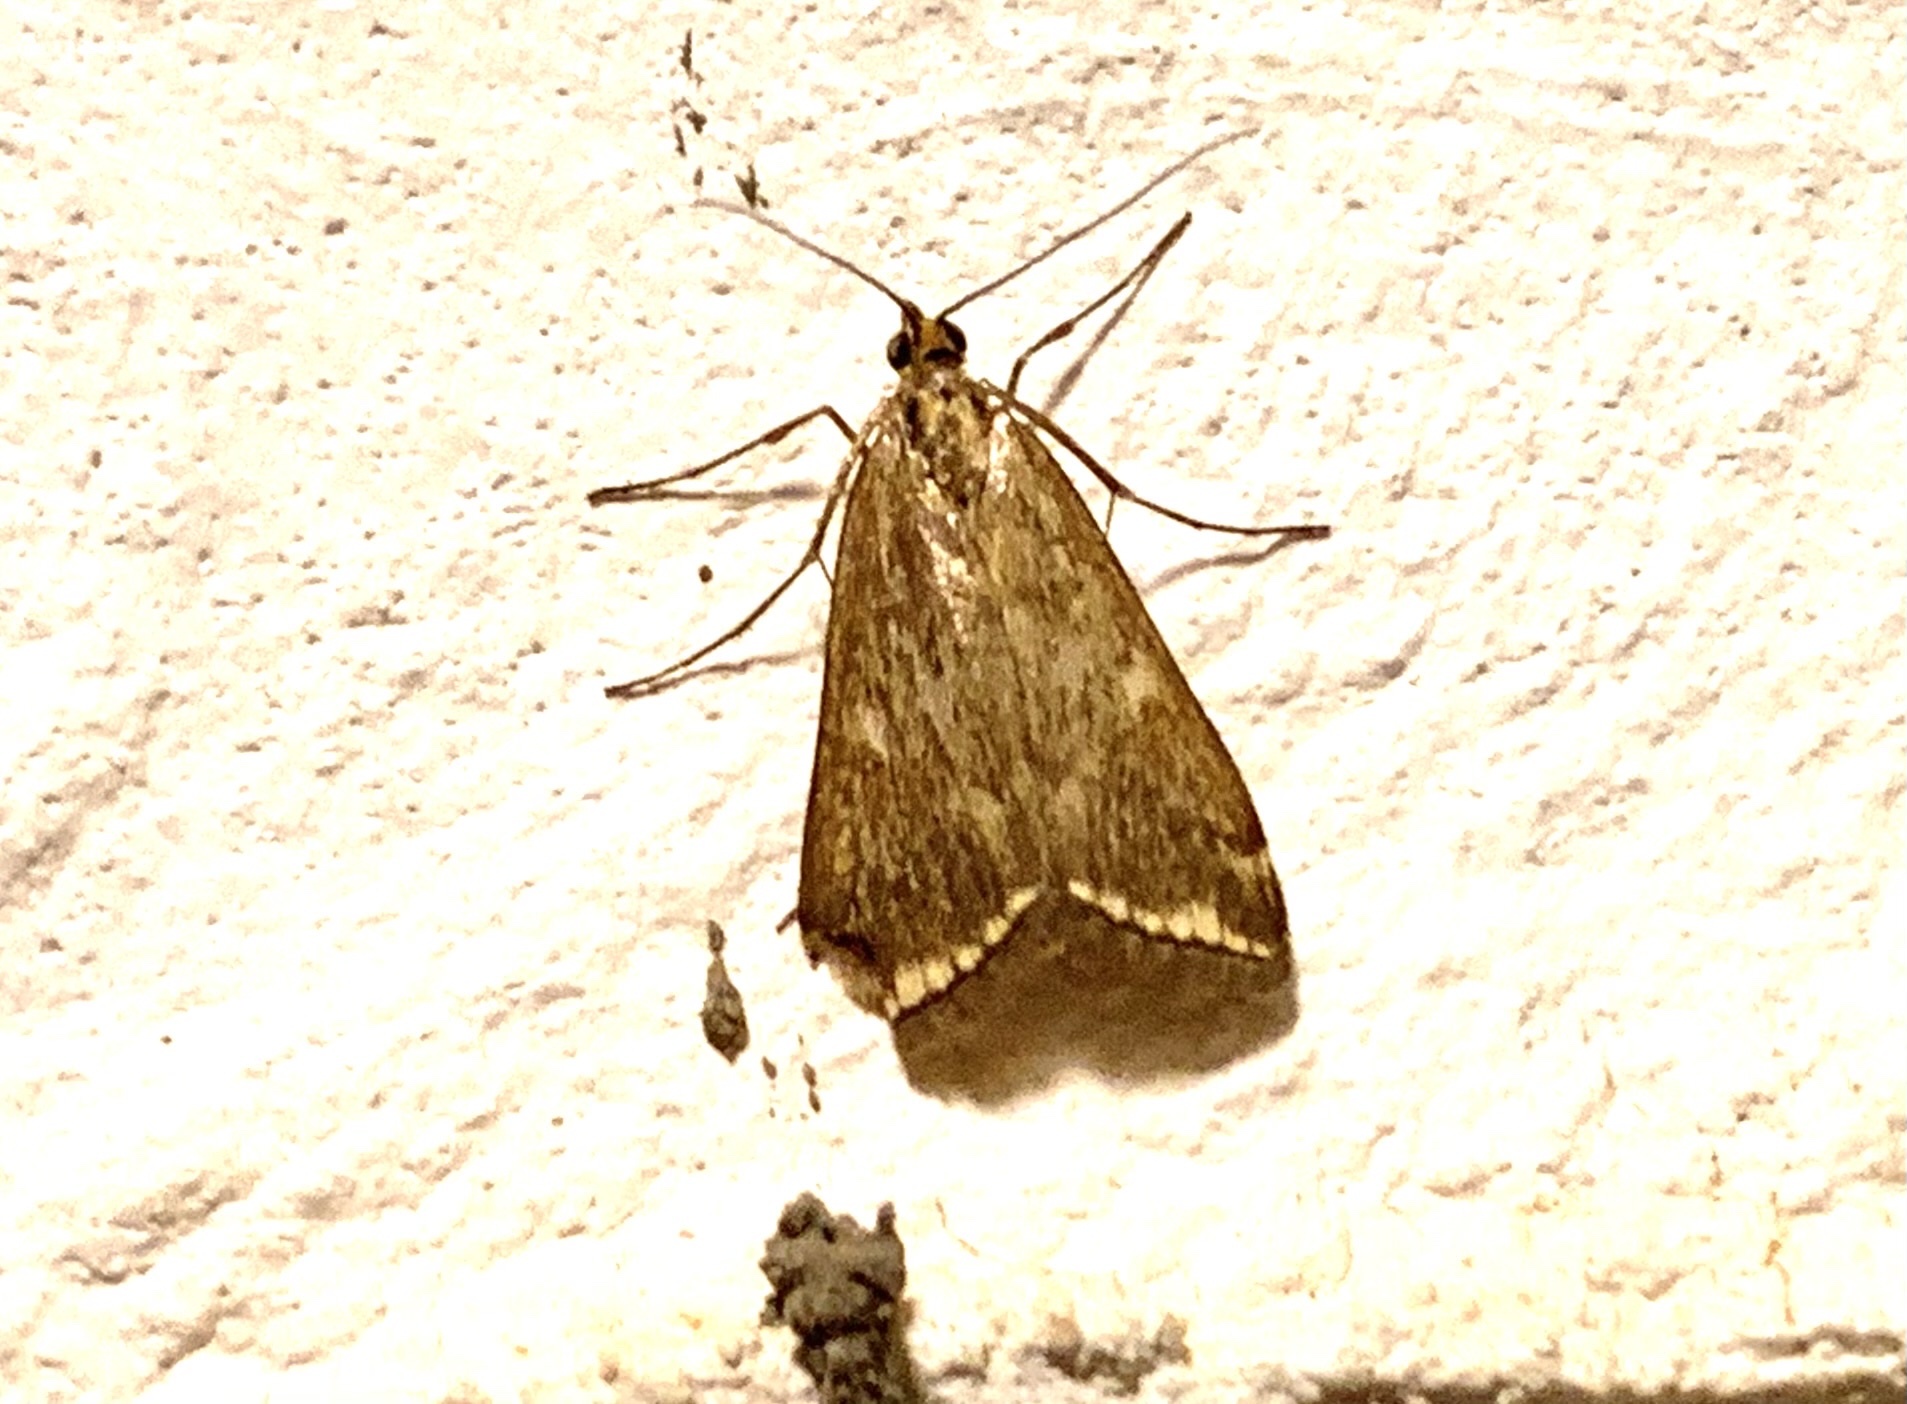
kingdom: Animalia
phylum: Arthropoda
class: Insecta
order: Lepidoptera
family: Crambidae
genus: Loxostege
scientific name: Loxostege sticticalis
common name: Crambid moth
